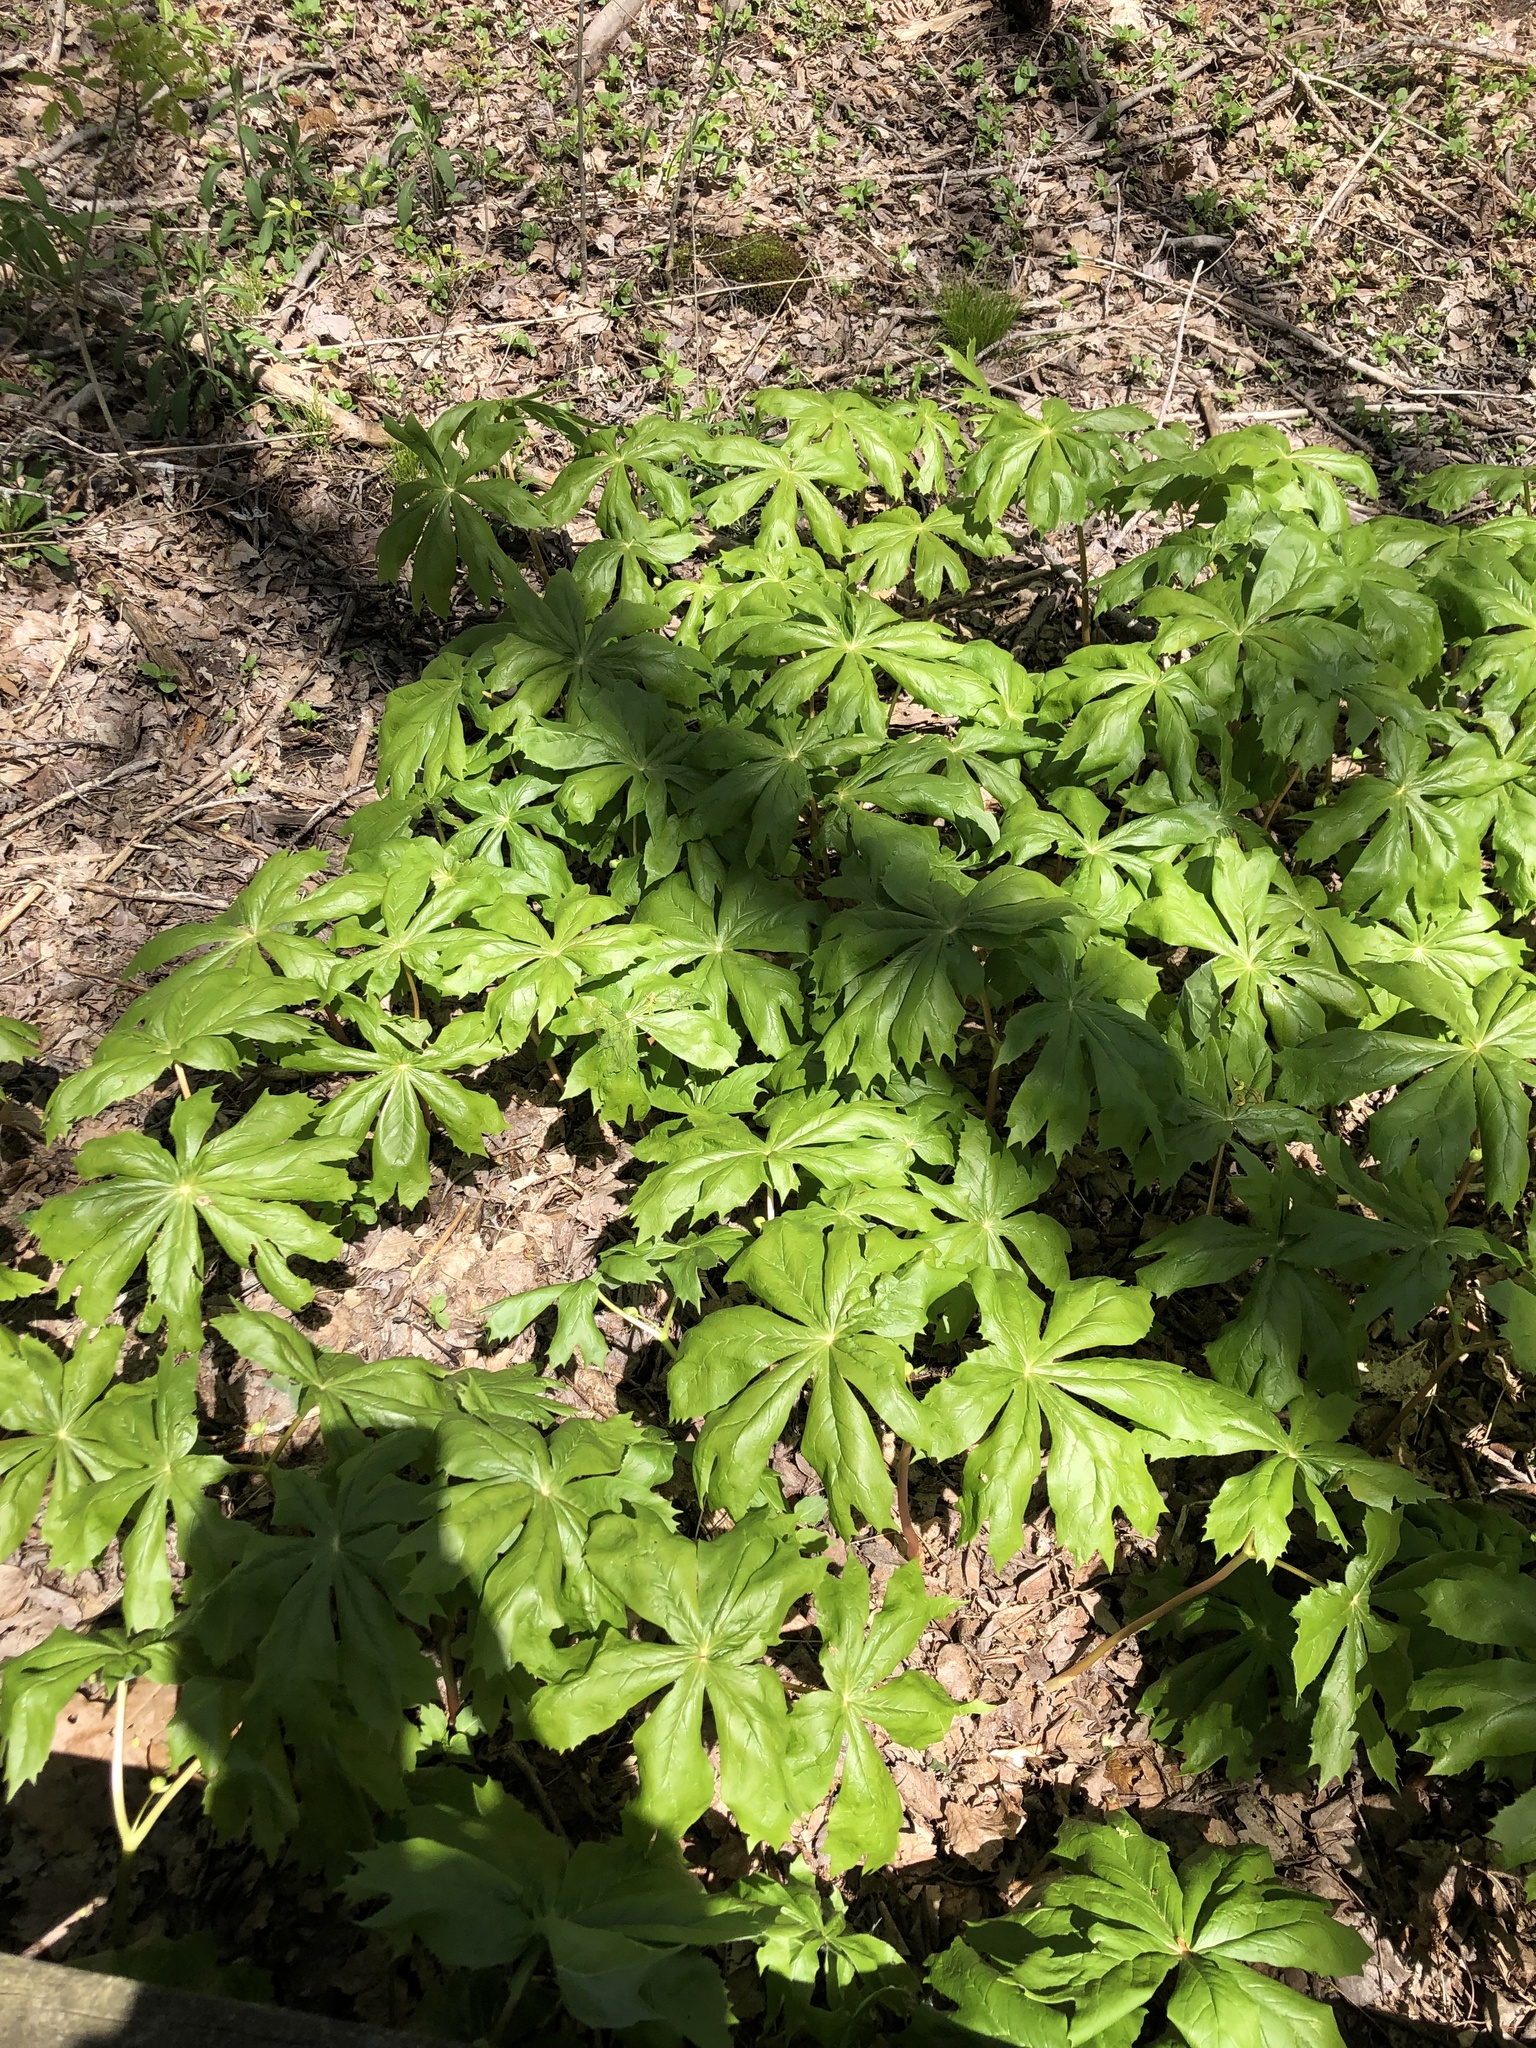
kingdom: Plantae
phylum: Tracheophyta
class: Magnoliopsida
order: Ranunculales
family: Berberidaceae
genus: Podophyllum
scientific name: Podophyllum peltatum
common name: Wild mandrake
